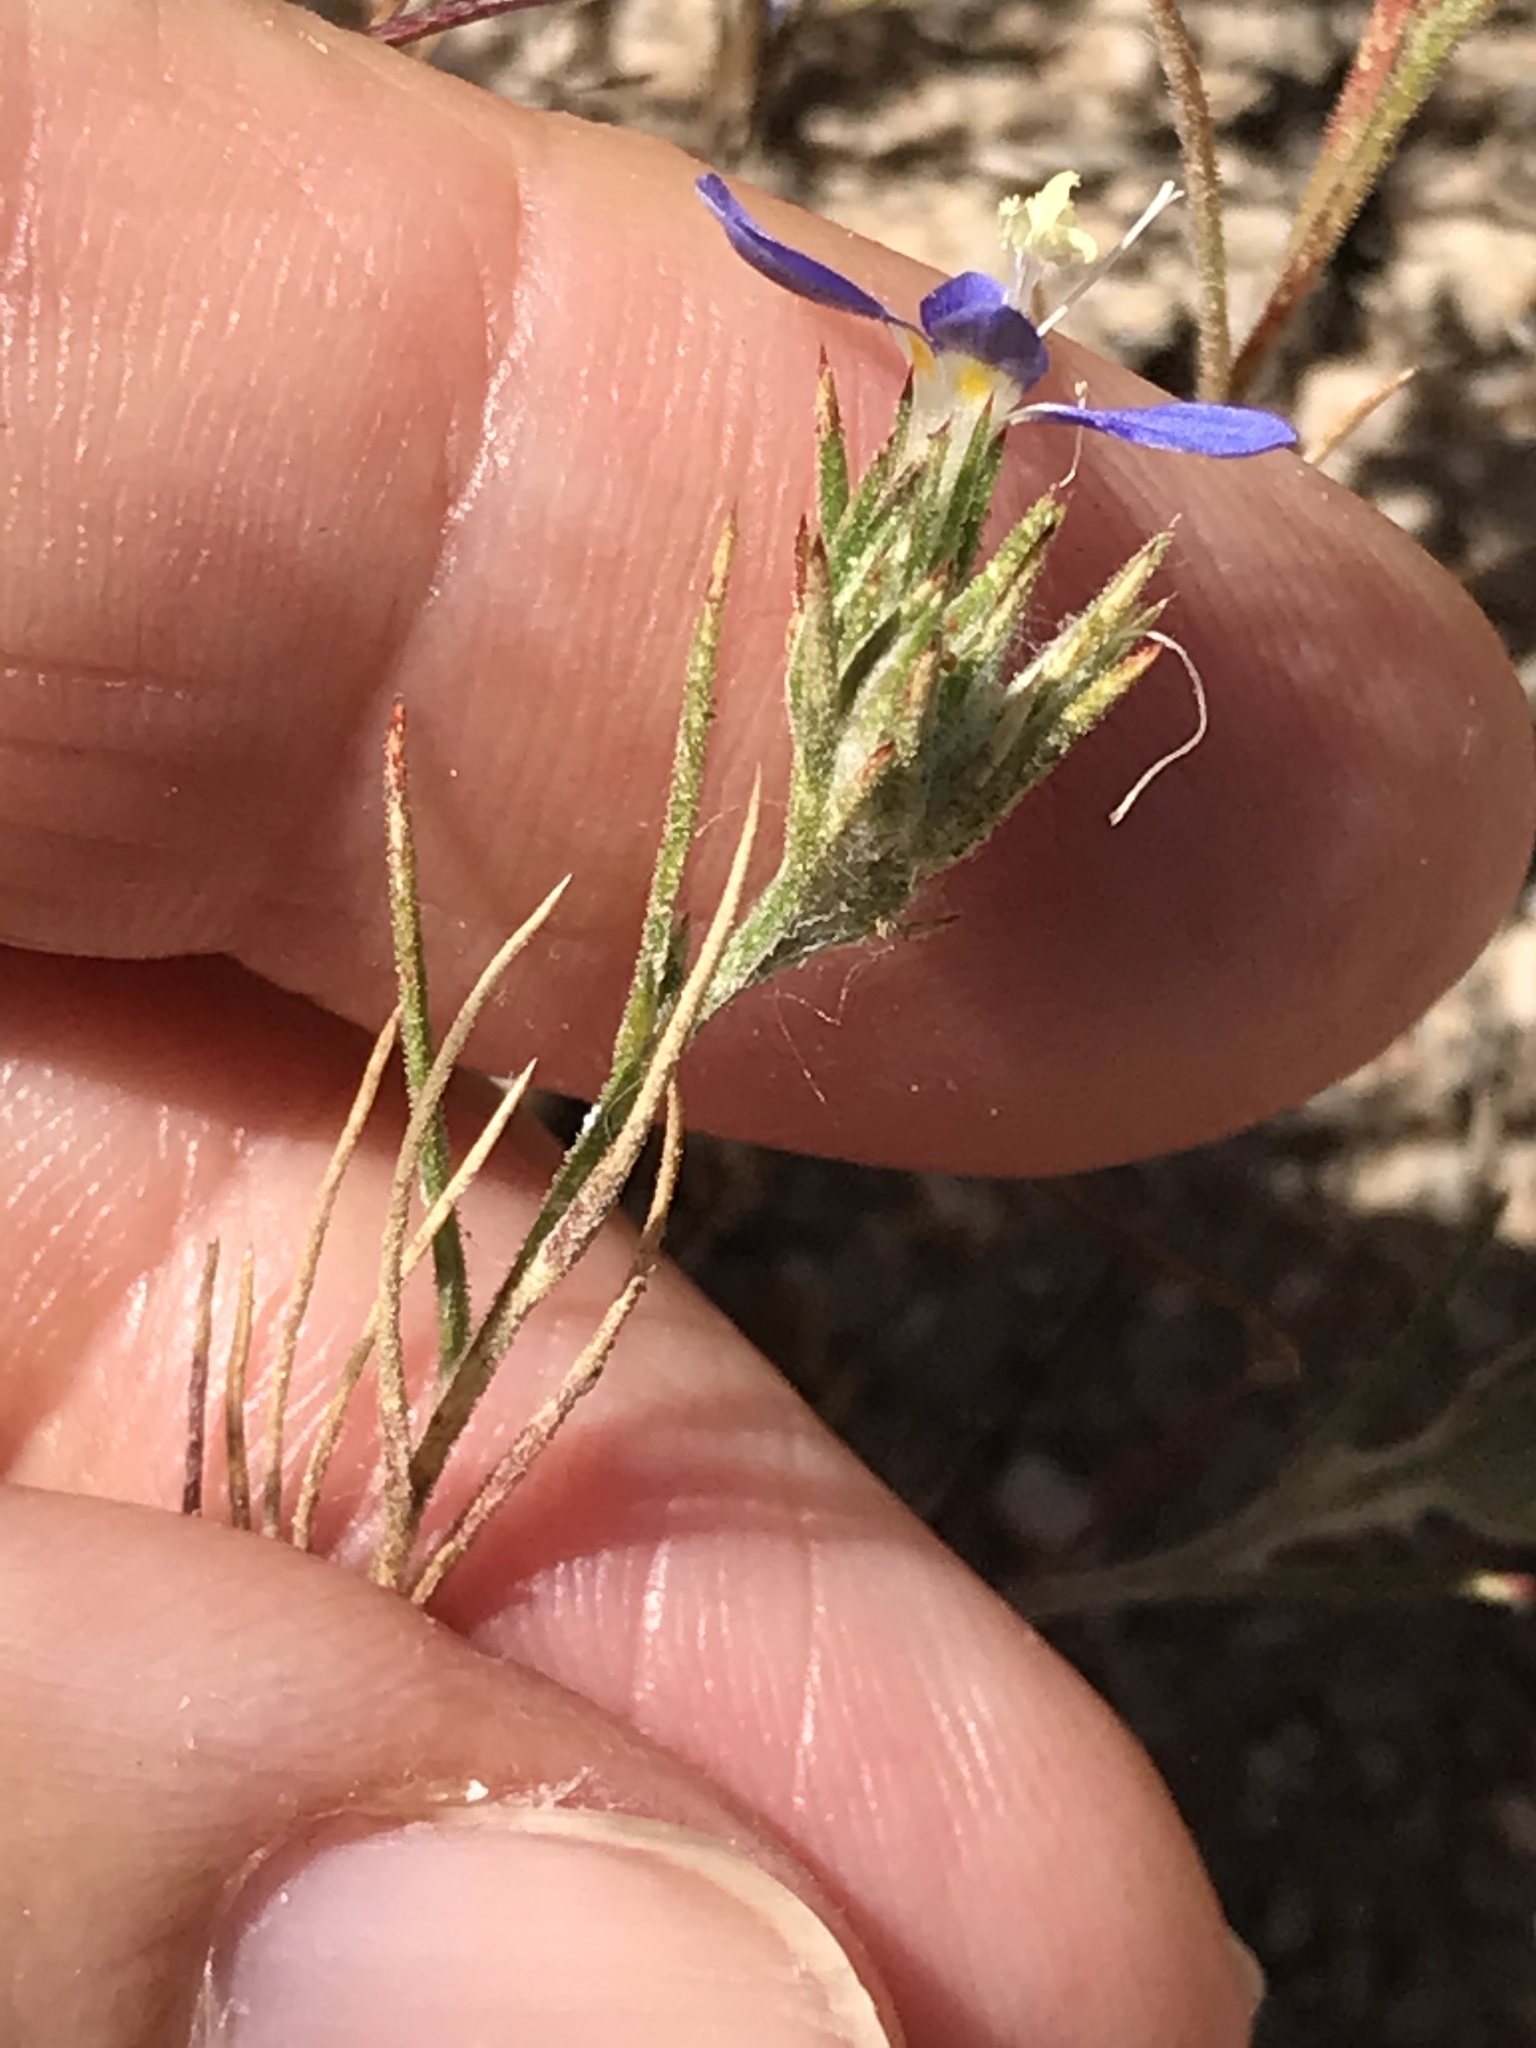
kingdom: Plantae
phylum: Tracheophyta
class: Magnoliopsida
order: Ericales
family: Polemoniaceae
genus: Eriastrum
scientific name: Eriastrum sapphirinum
